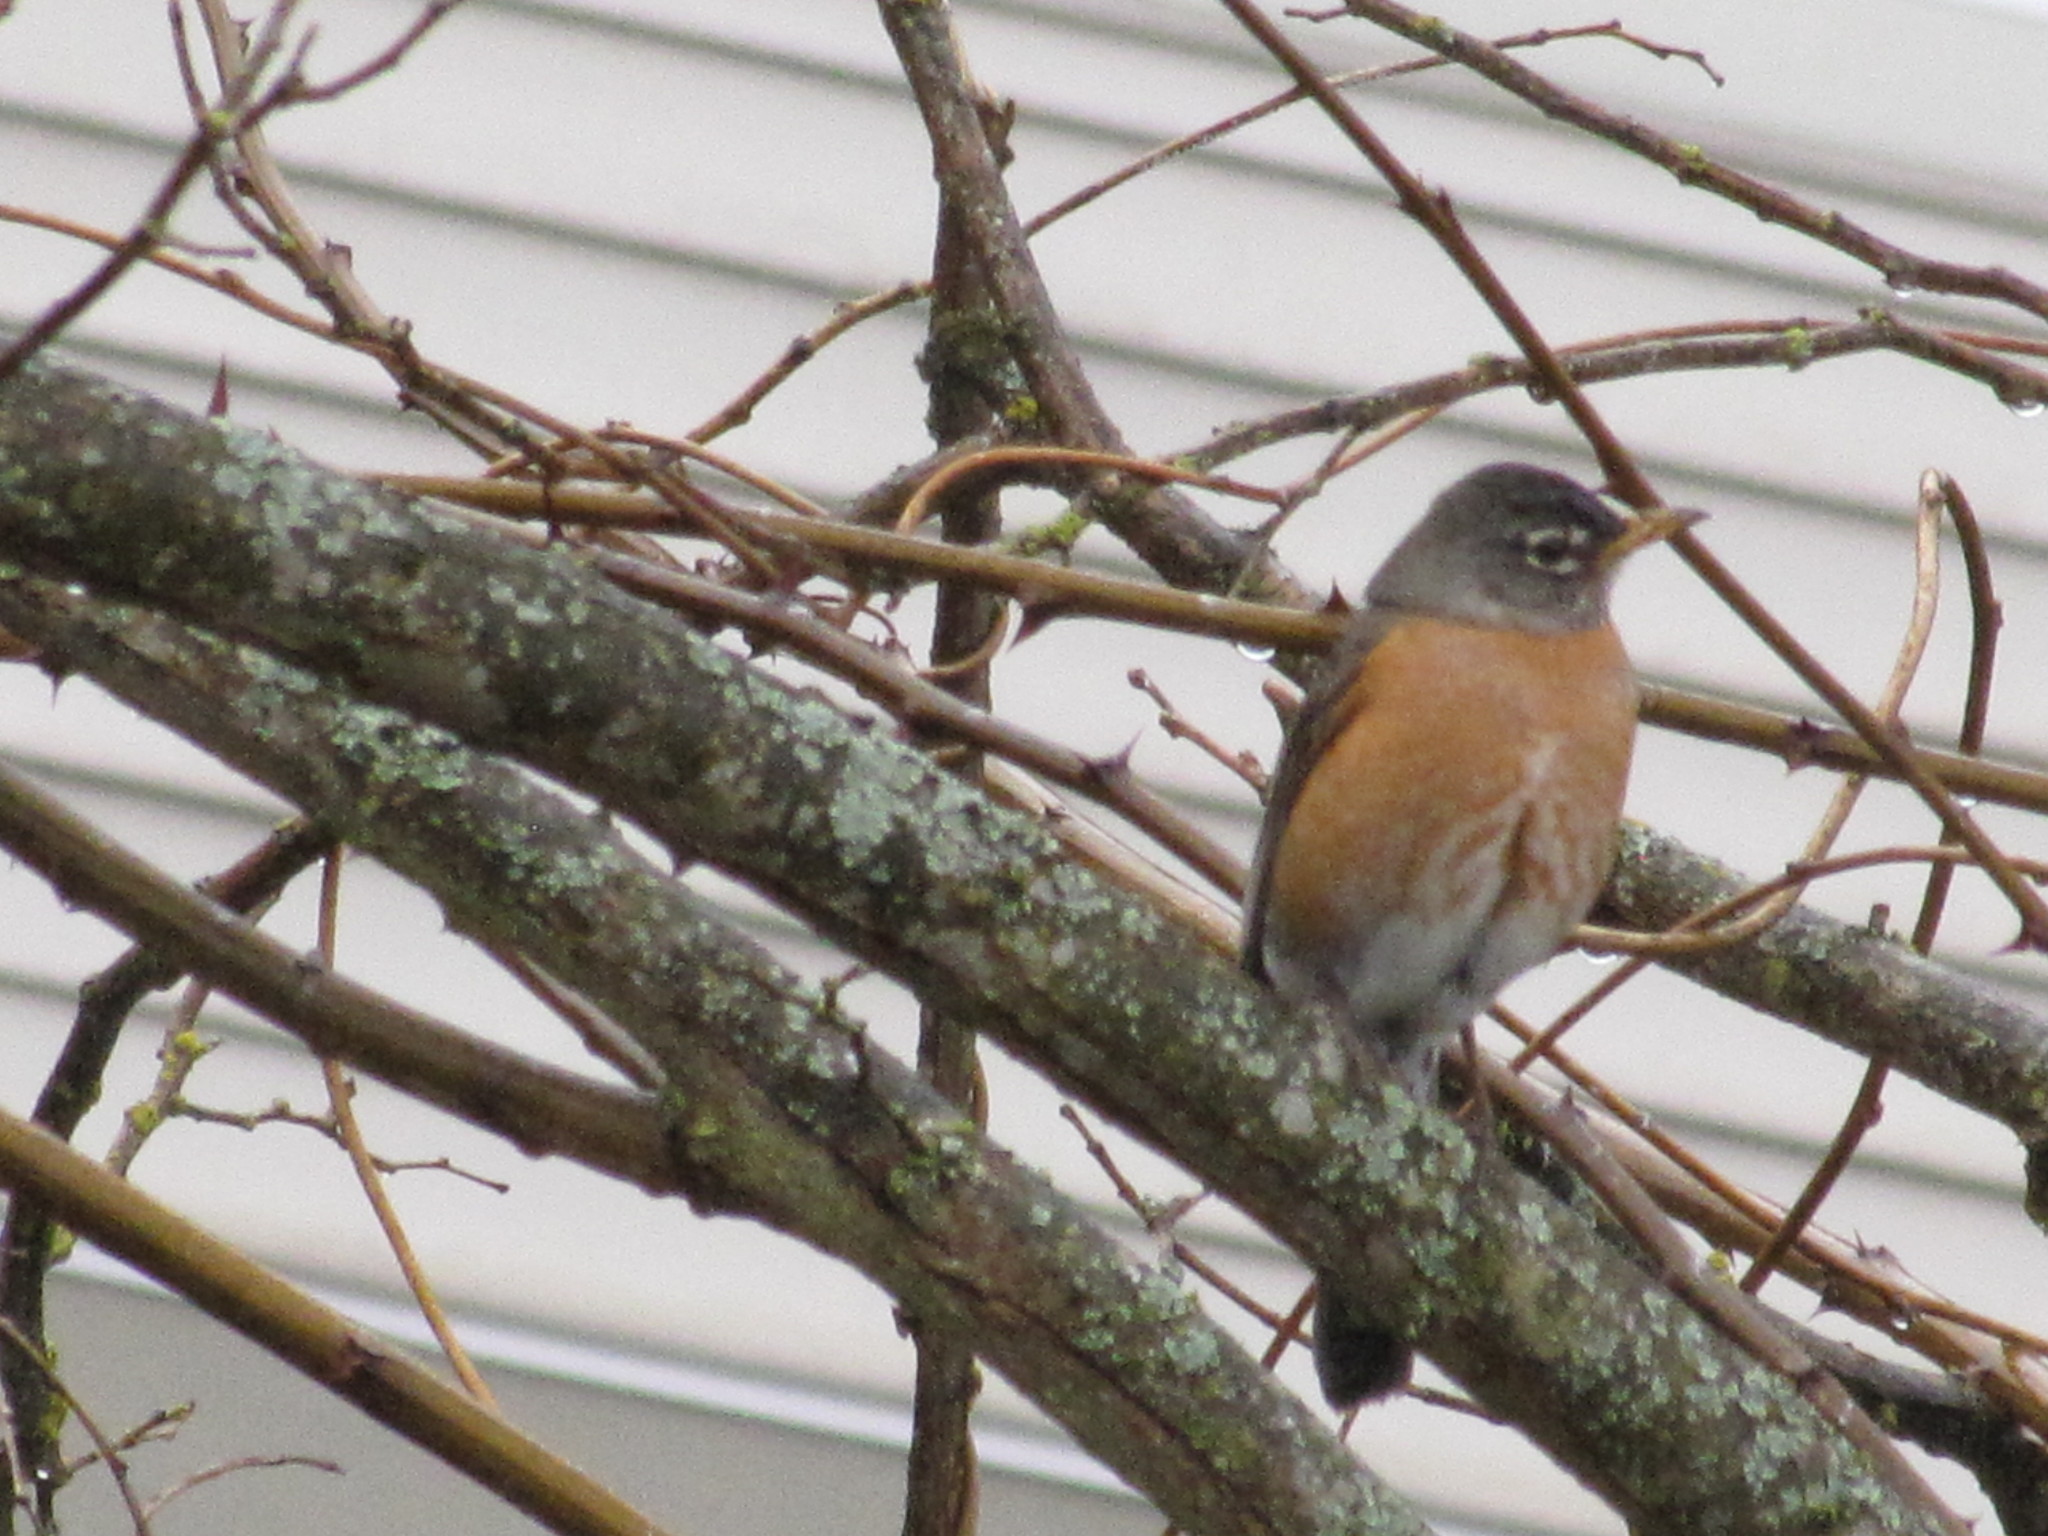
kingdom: Animalia
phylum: Chordata
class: Aves
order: Passeriformes
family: Turdidae
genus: Turdus
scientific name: Turdus migratorius
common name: American robin
